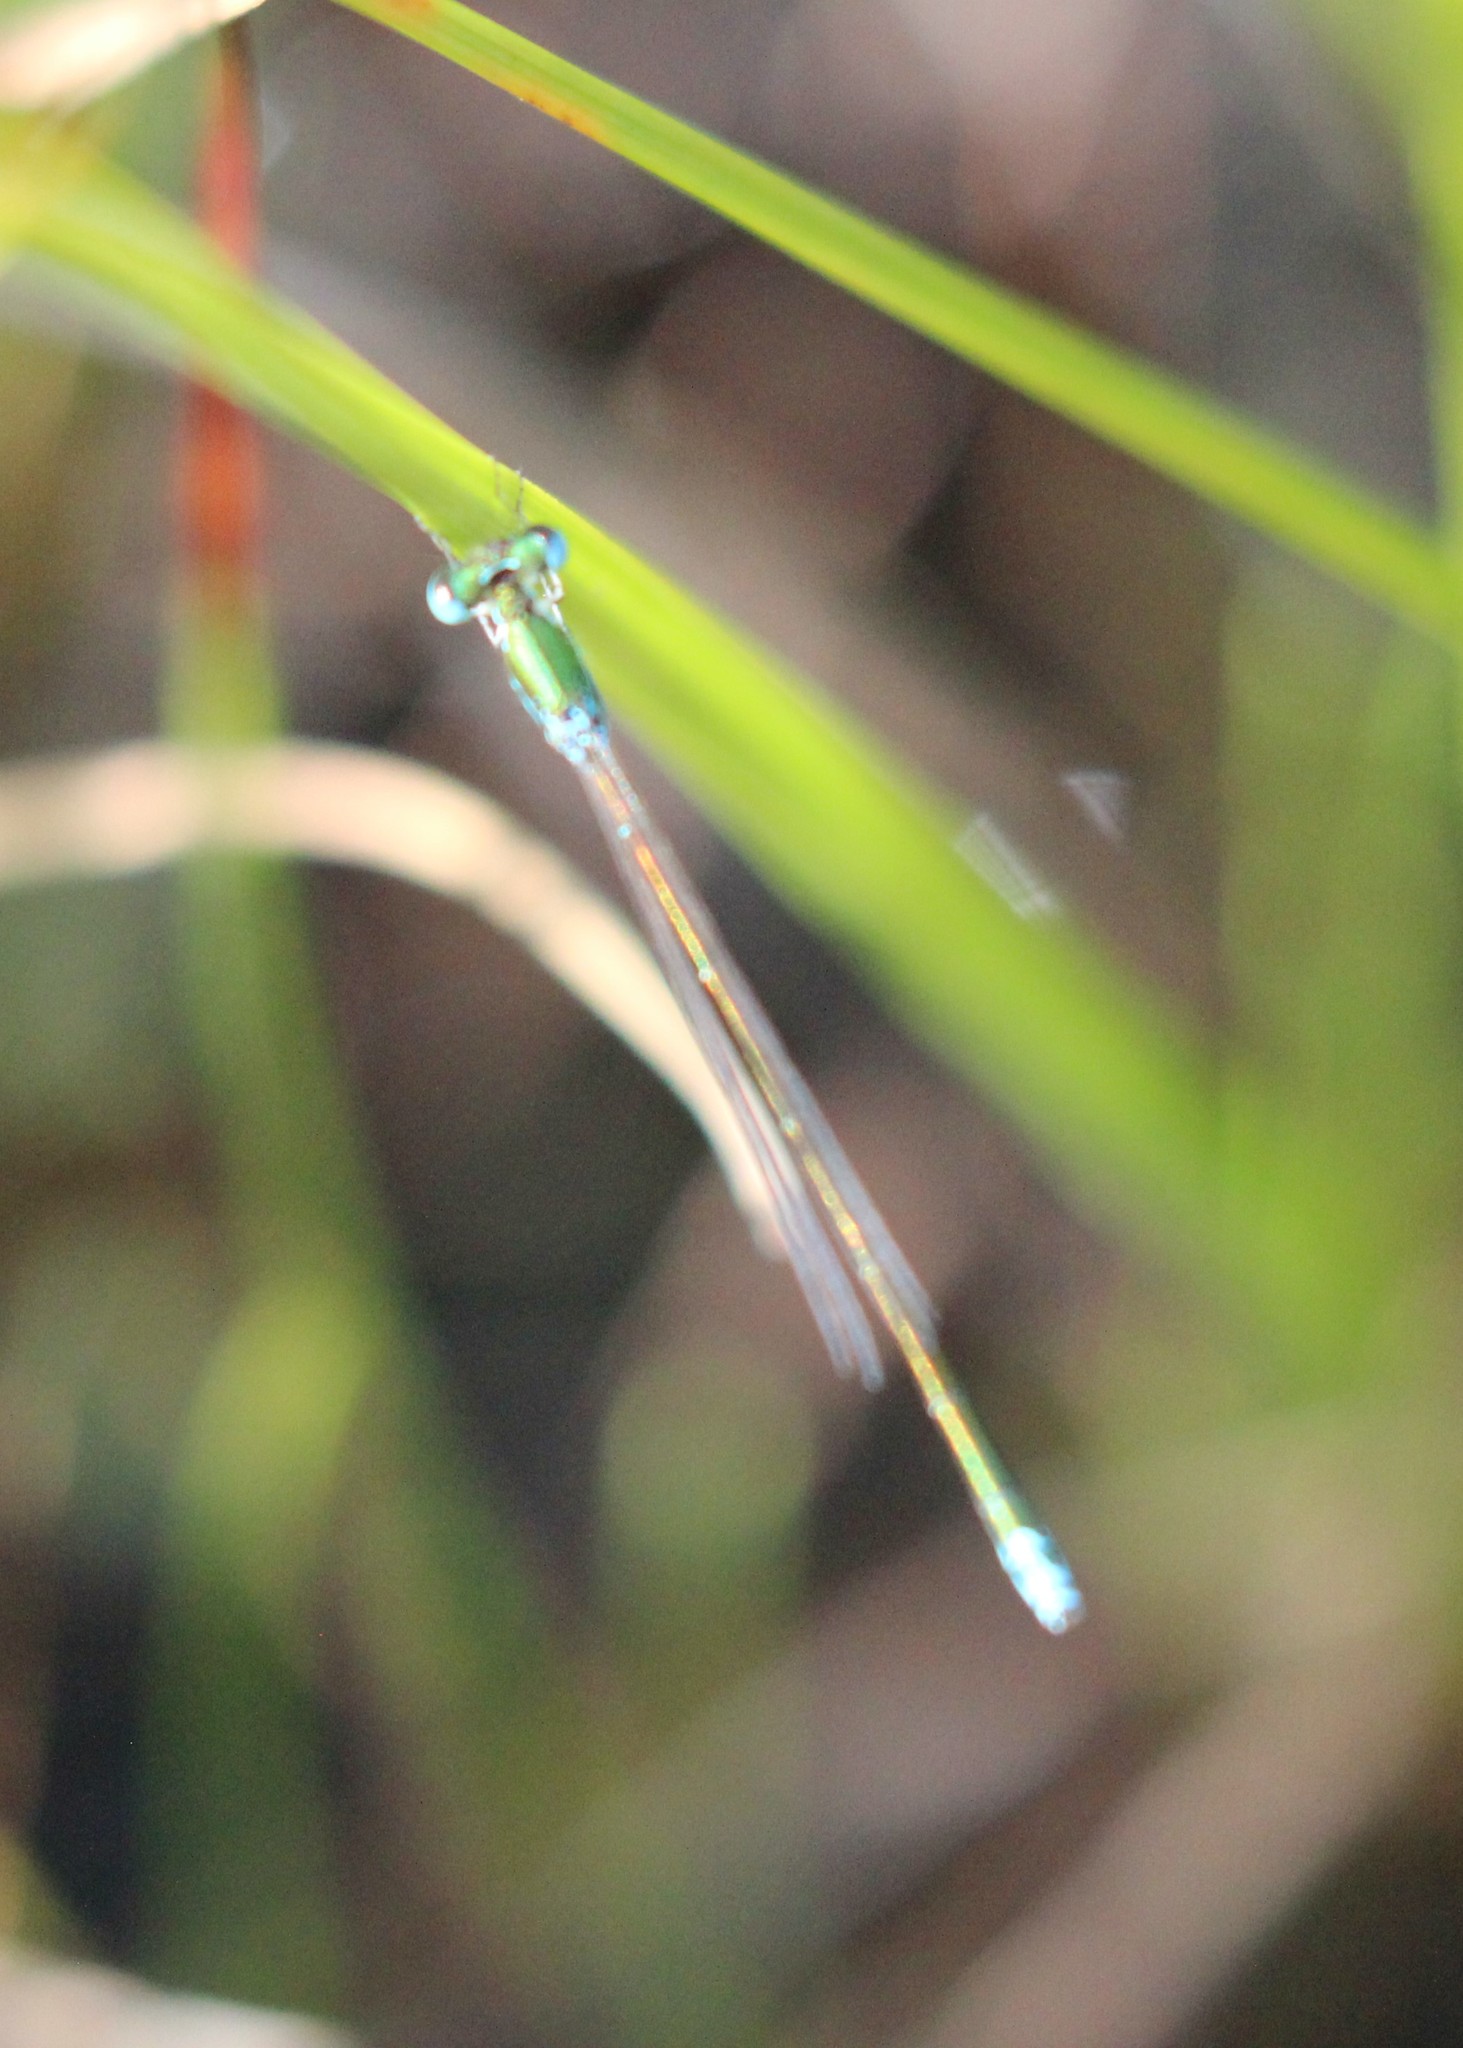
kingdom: Animalia
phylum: Arthropoda
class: Insecta
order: Odonata
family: Coenagrionidae
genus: Nehalennia
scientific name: Nehalennia irene
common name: Sedge sprite
